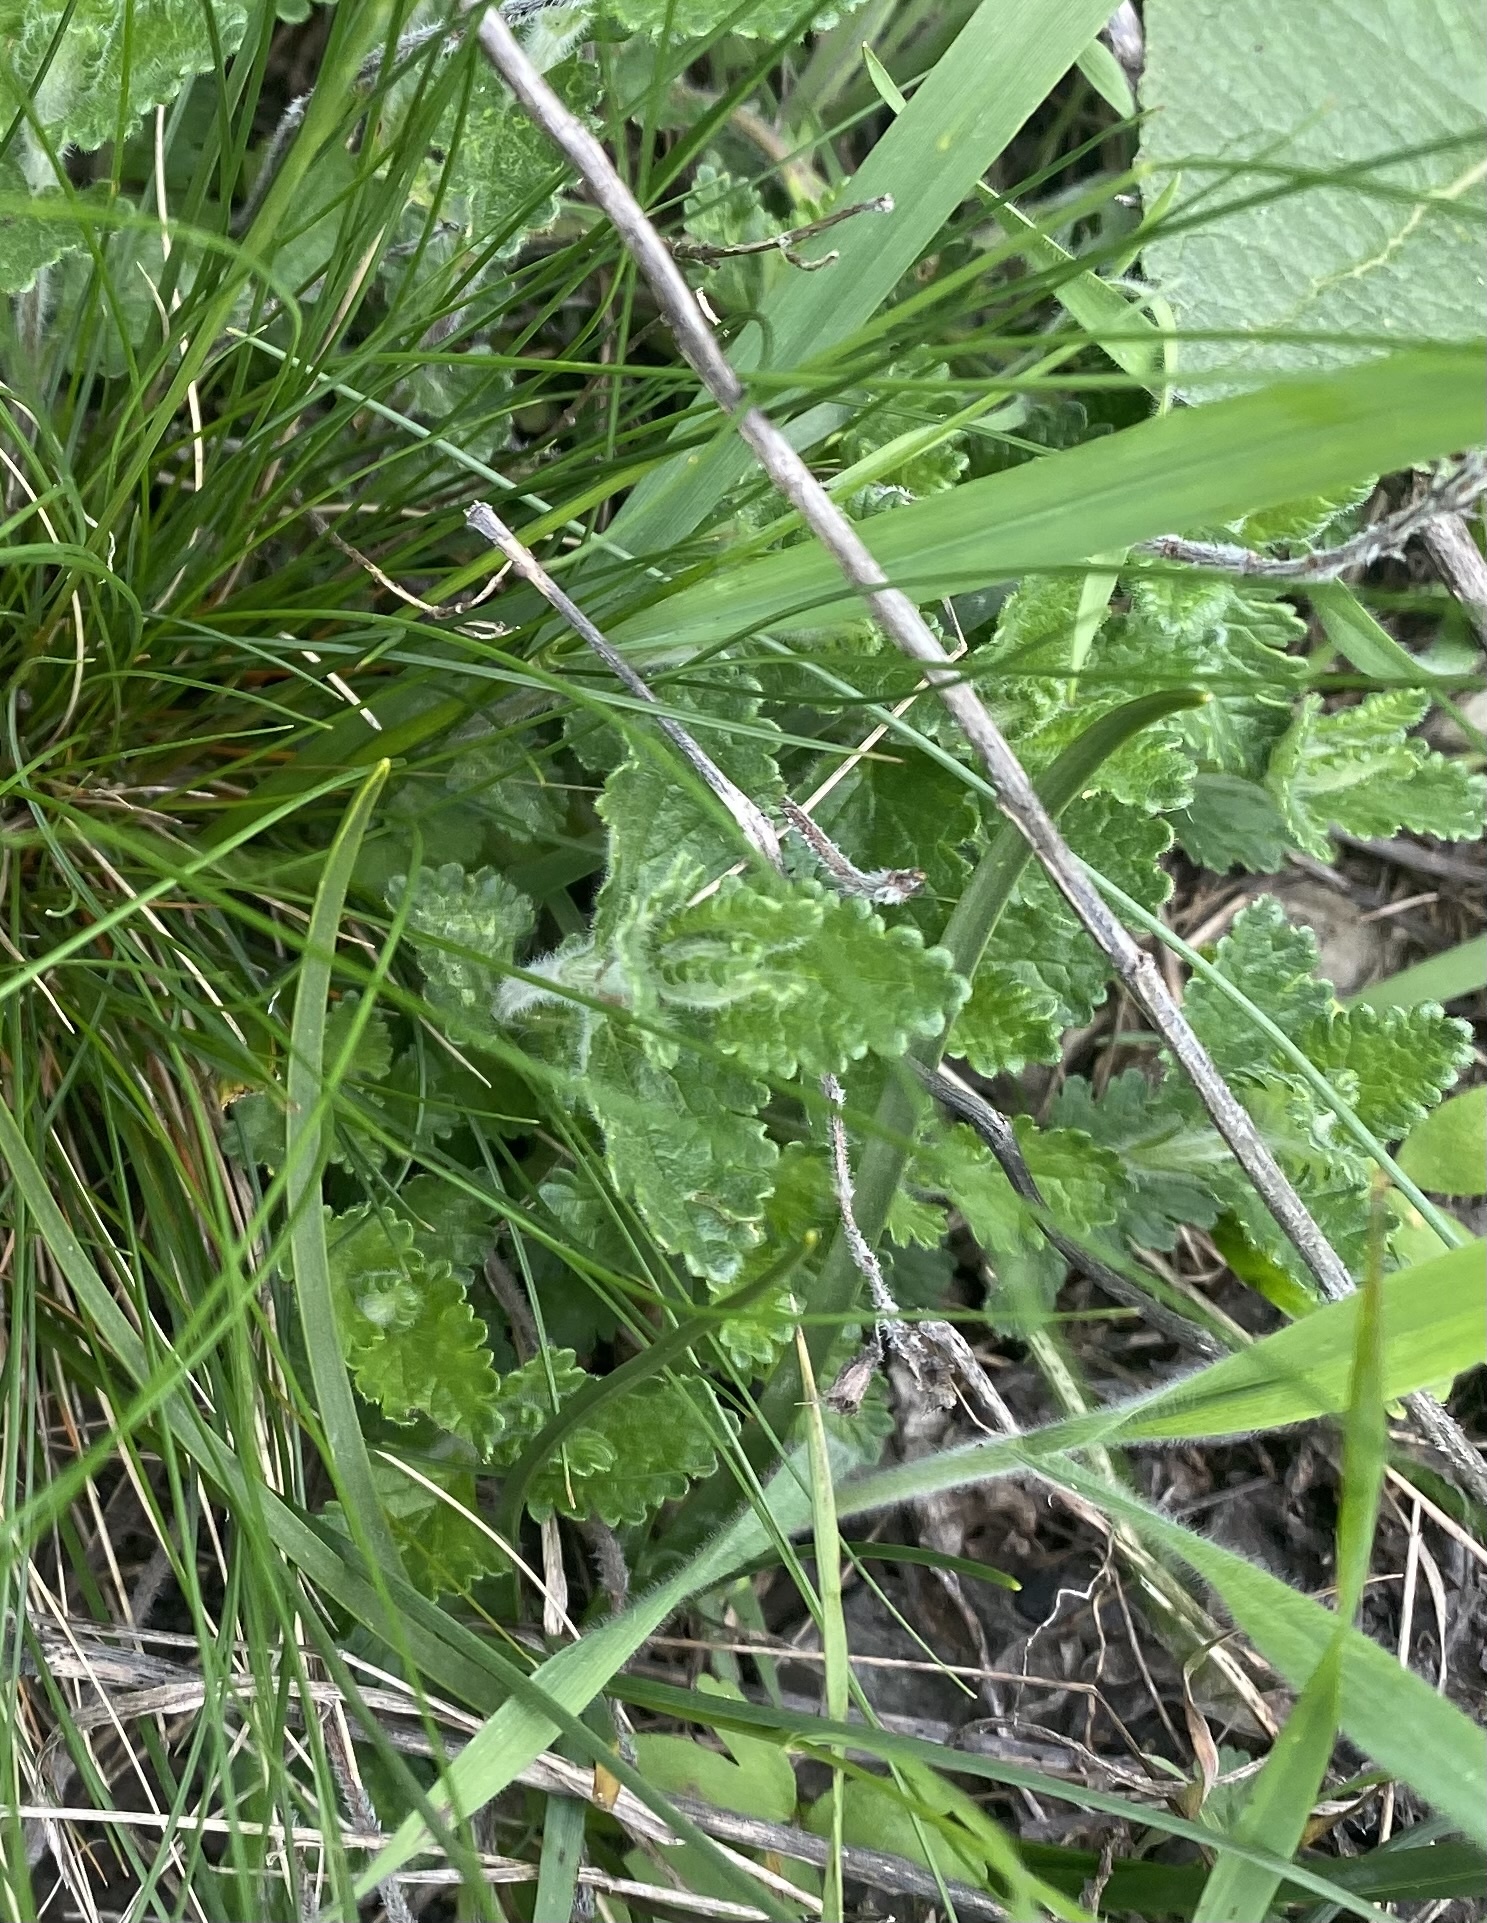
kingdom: Plantae
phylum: Tracheophyta
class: Magnoliopsida
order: Lamiales
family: Lamiaceae
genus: Teucrium
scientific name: Teucrium chamaedrys
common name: Wall germander
